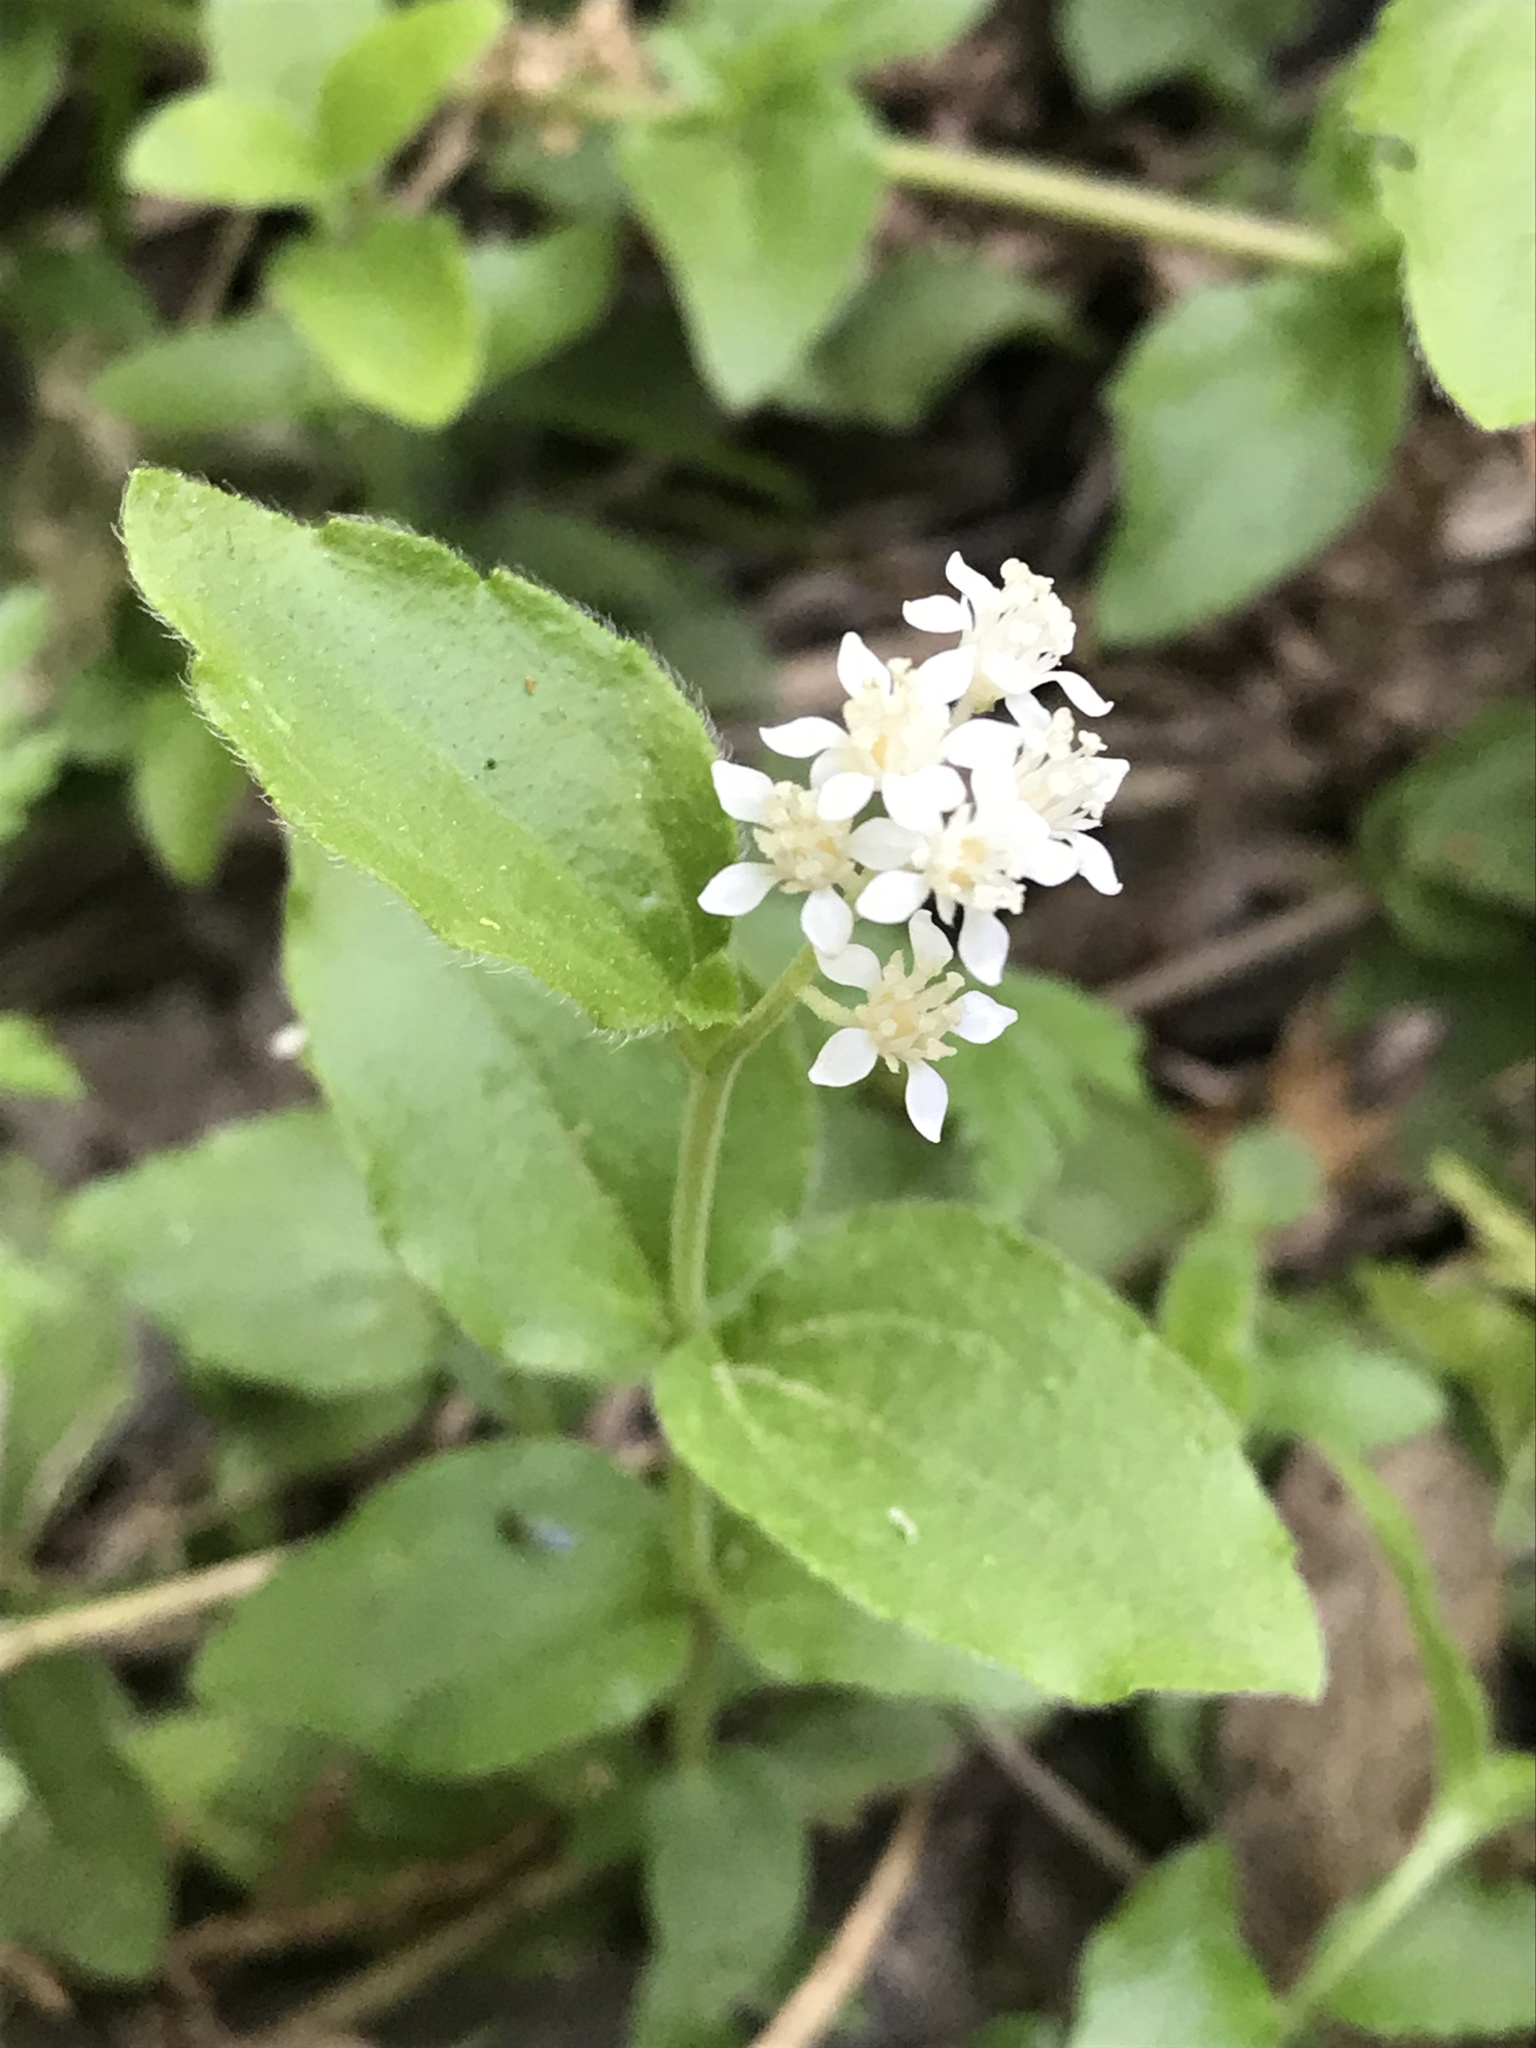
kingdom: Plantae
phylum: Tracheophyta
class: Magnoliopsida
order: Cornales
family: Hydrangeaceae
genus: Whipplea
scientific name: Whipplea modesta
